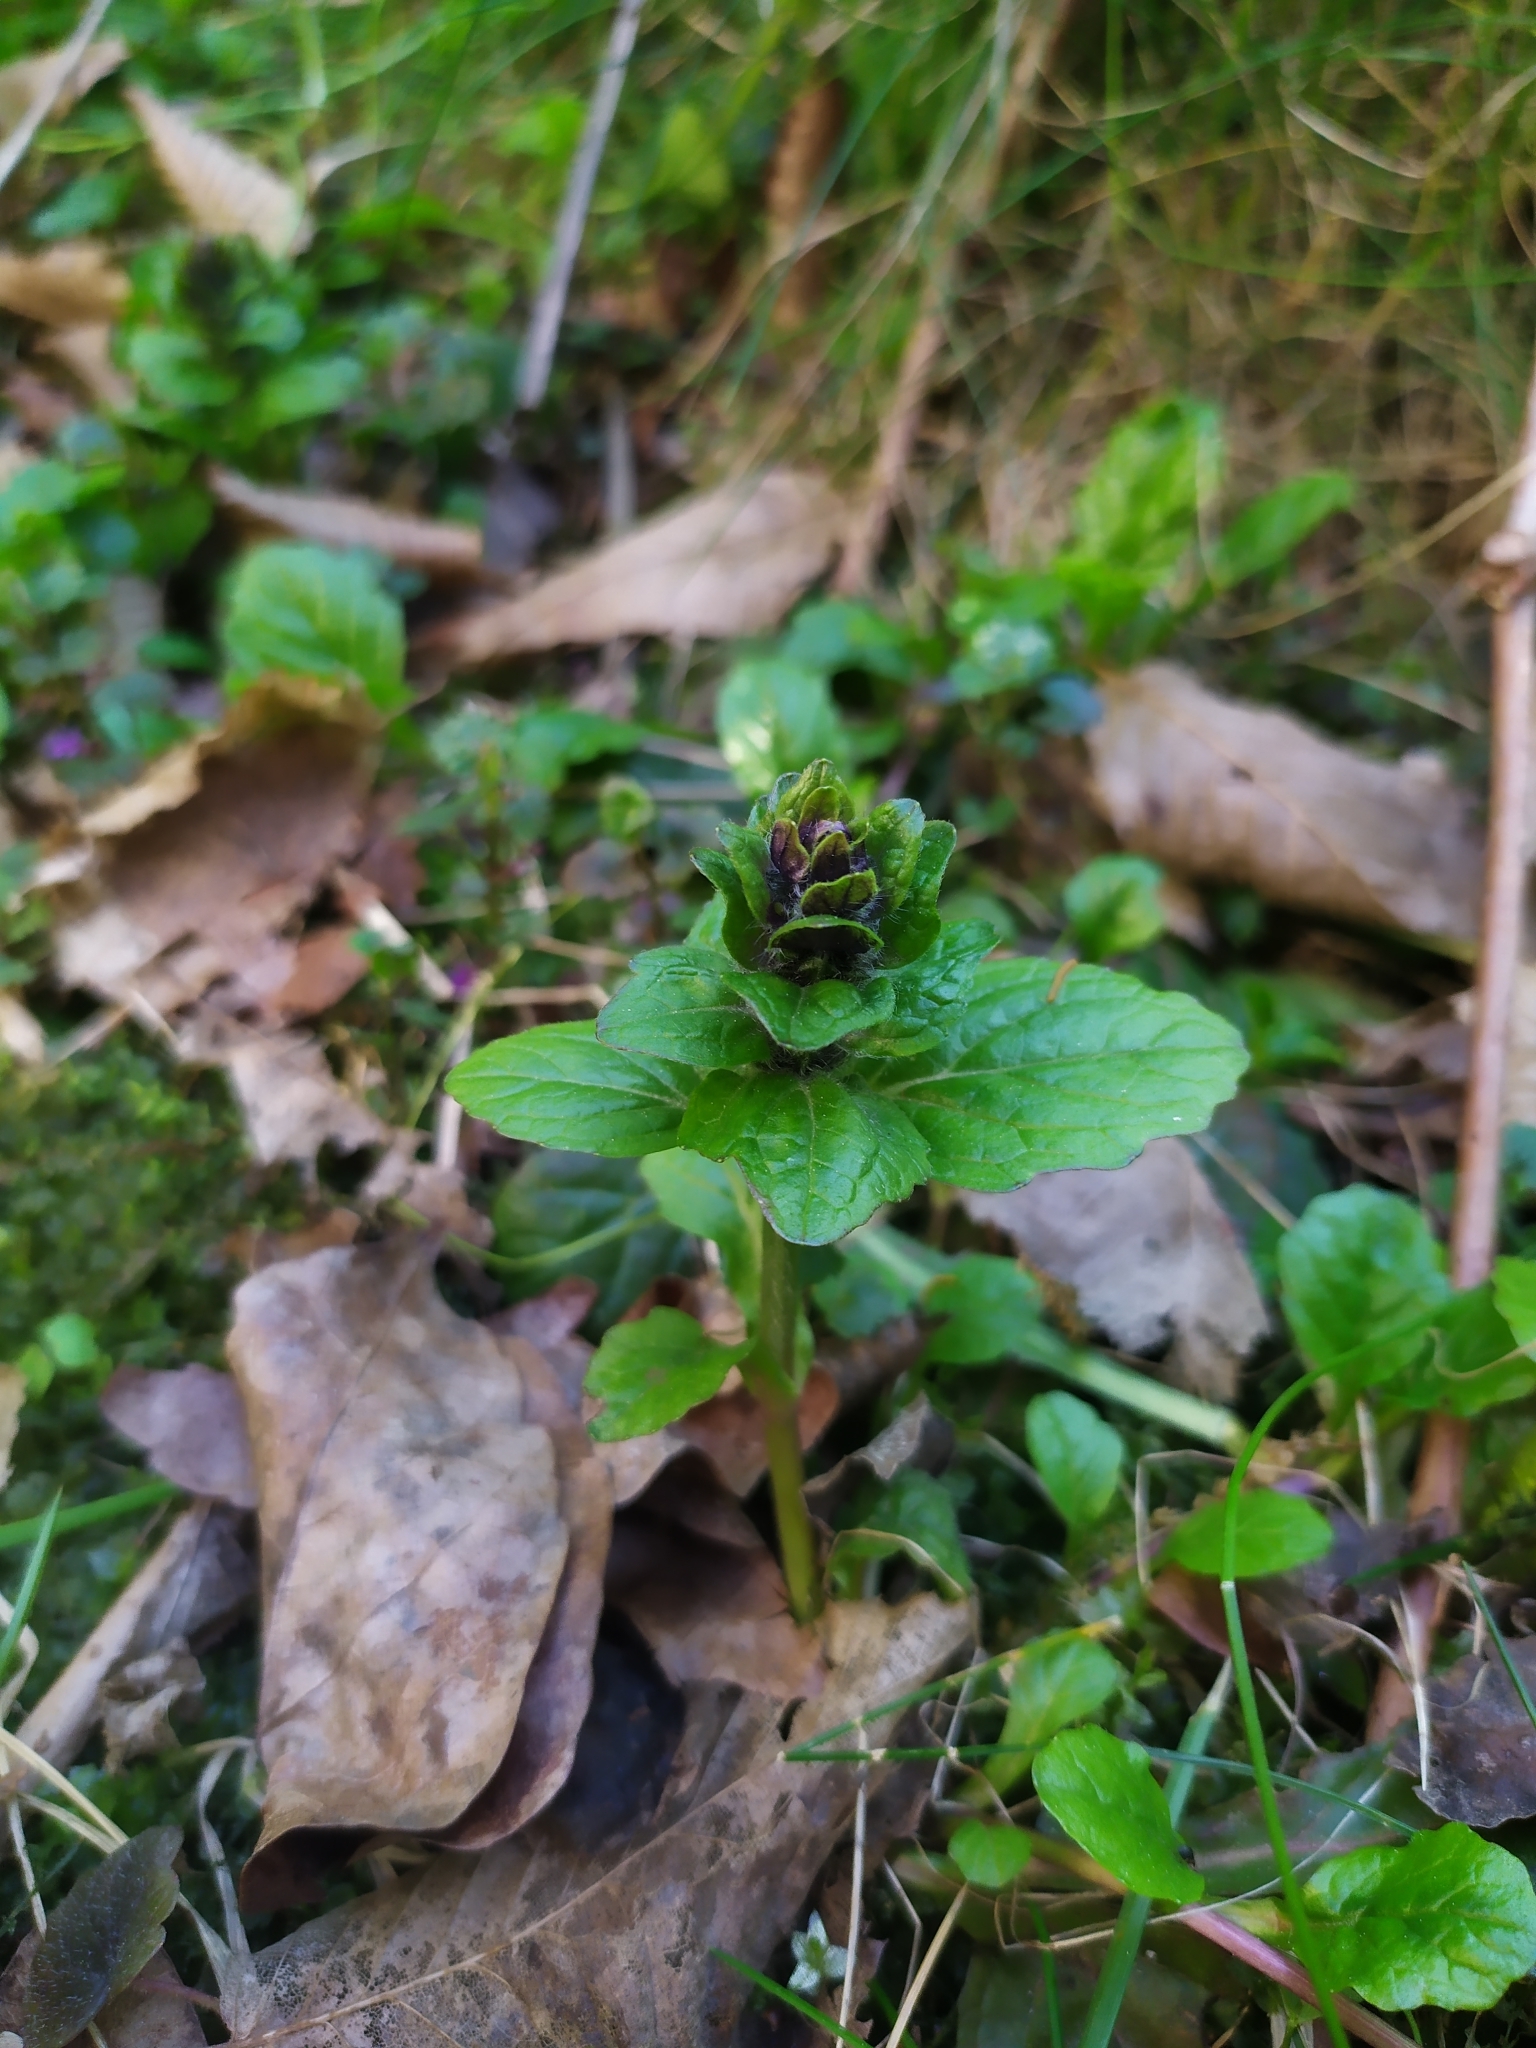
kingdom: Plantae
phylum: Tracheophyta
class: Magnoliopsida
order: Lamiales
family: Lamiaceae
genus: Ajuga
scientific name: Ajuga reptans
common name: Bugle
